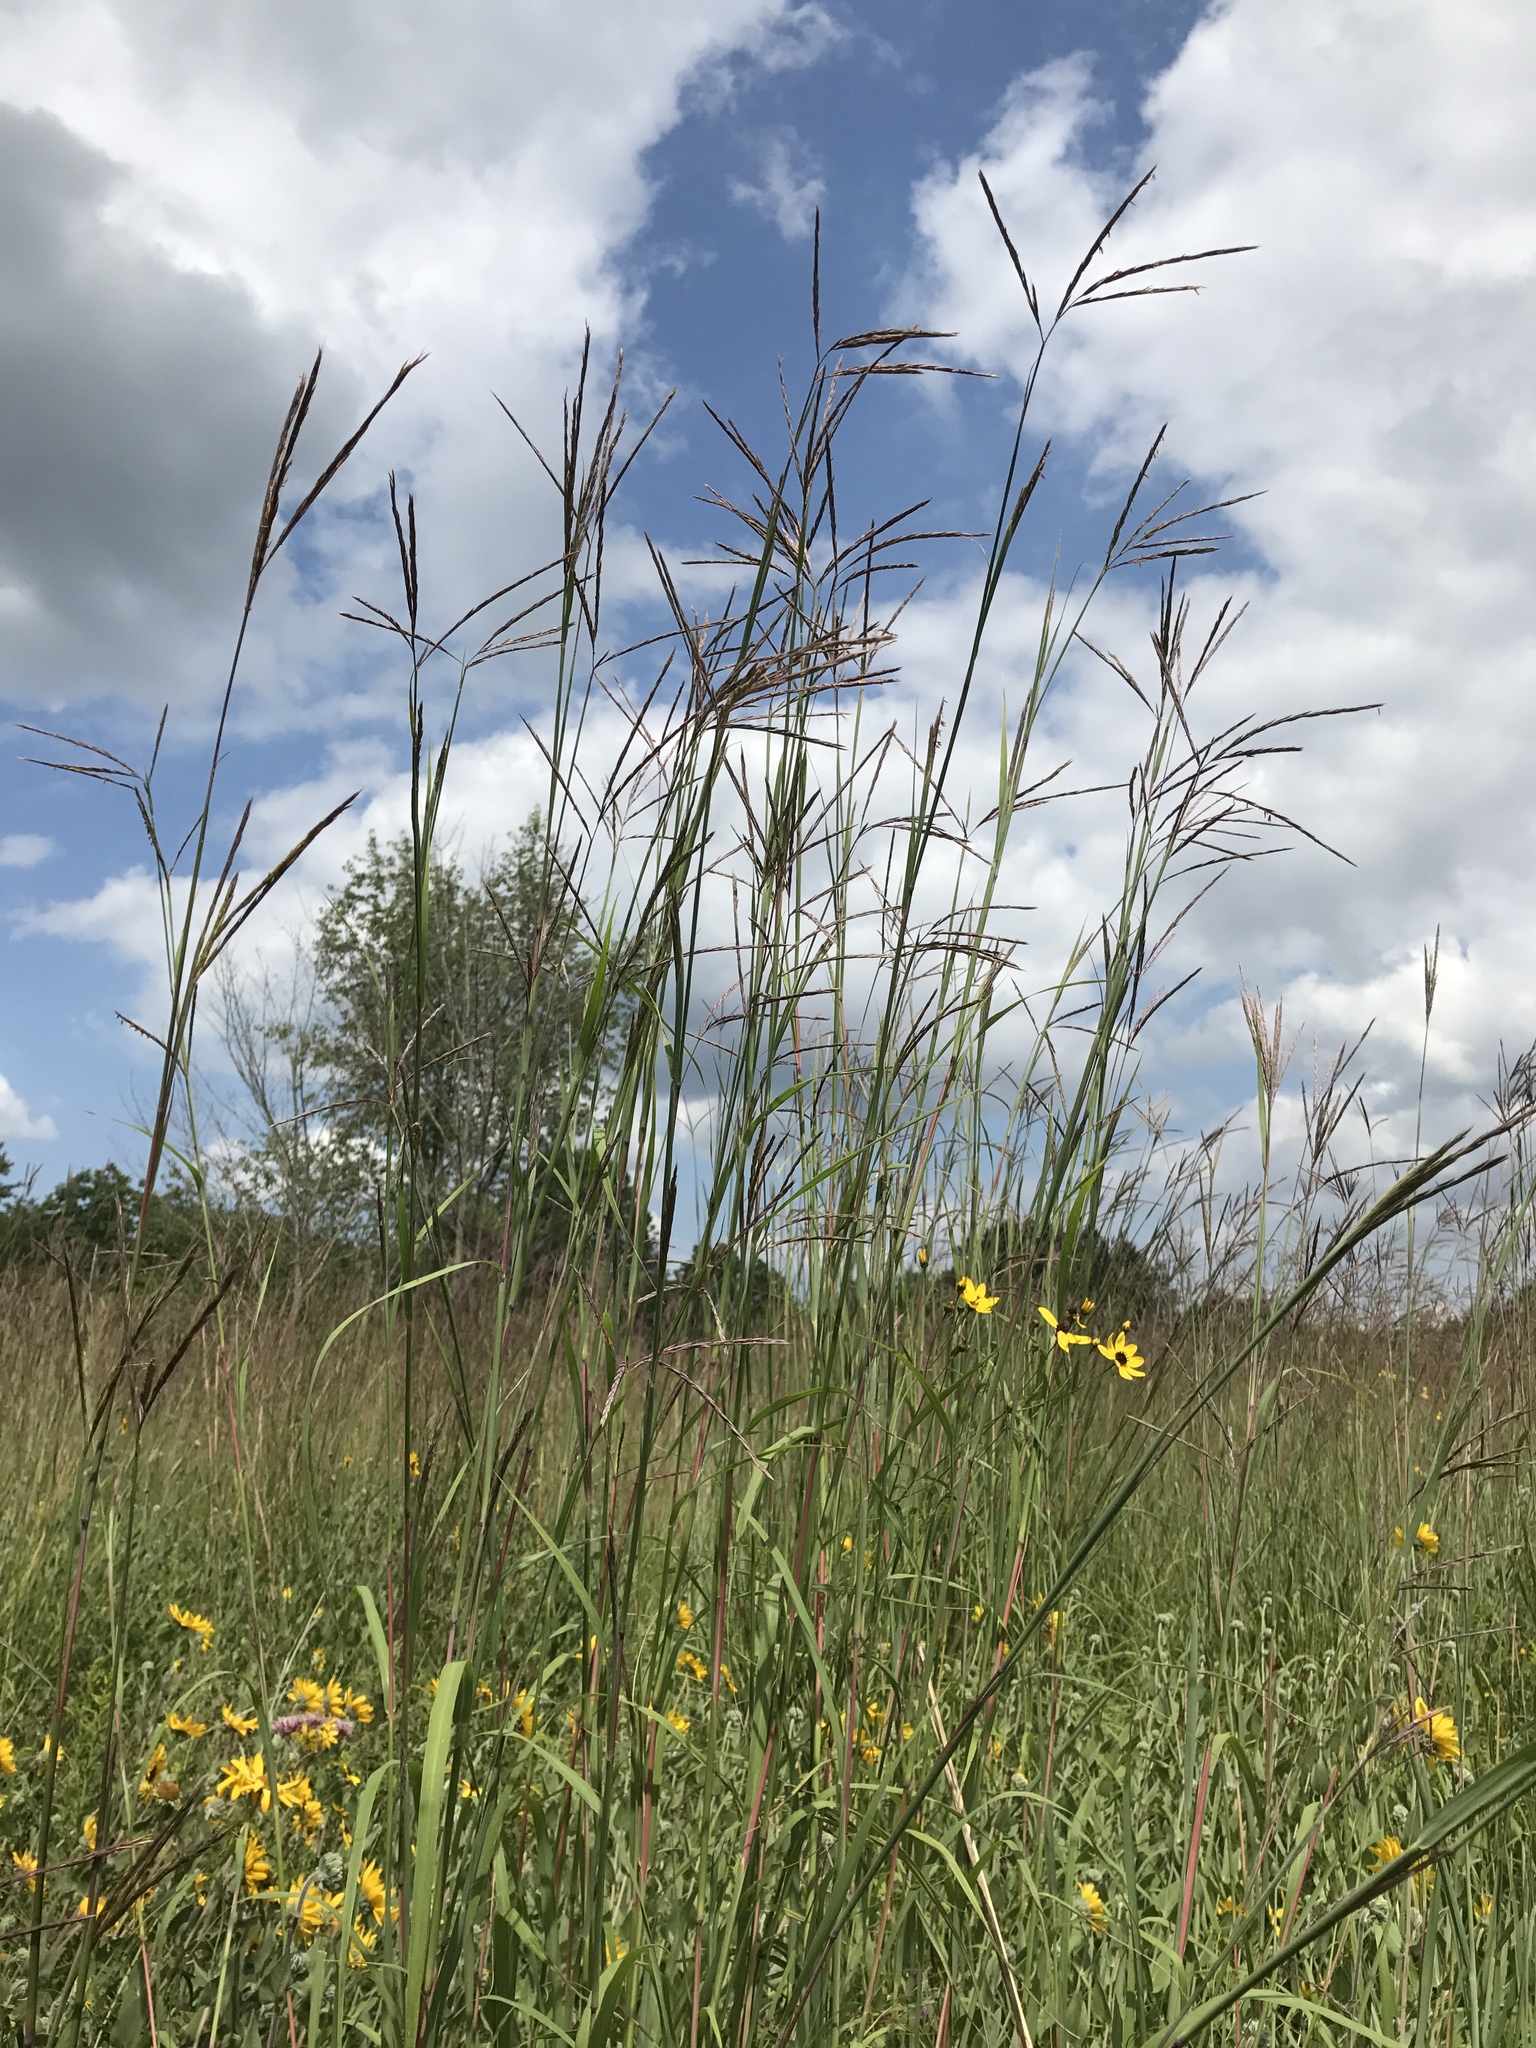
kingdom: Plantae
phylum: Tracheophyta
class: Liliopsida
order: Poales
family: Poaceae
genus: Andropogon
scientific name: Andropogon gerardi
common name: Big bluestem
